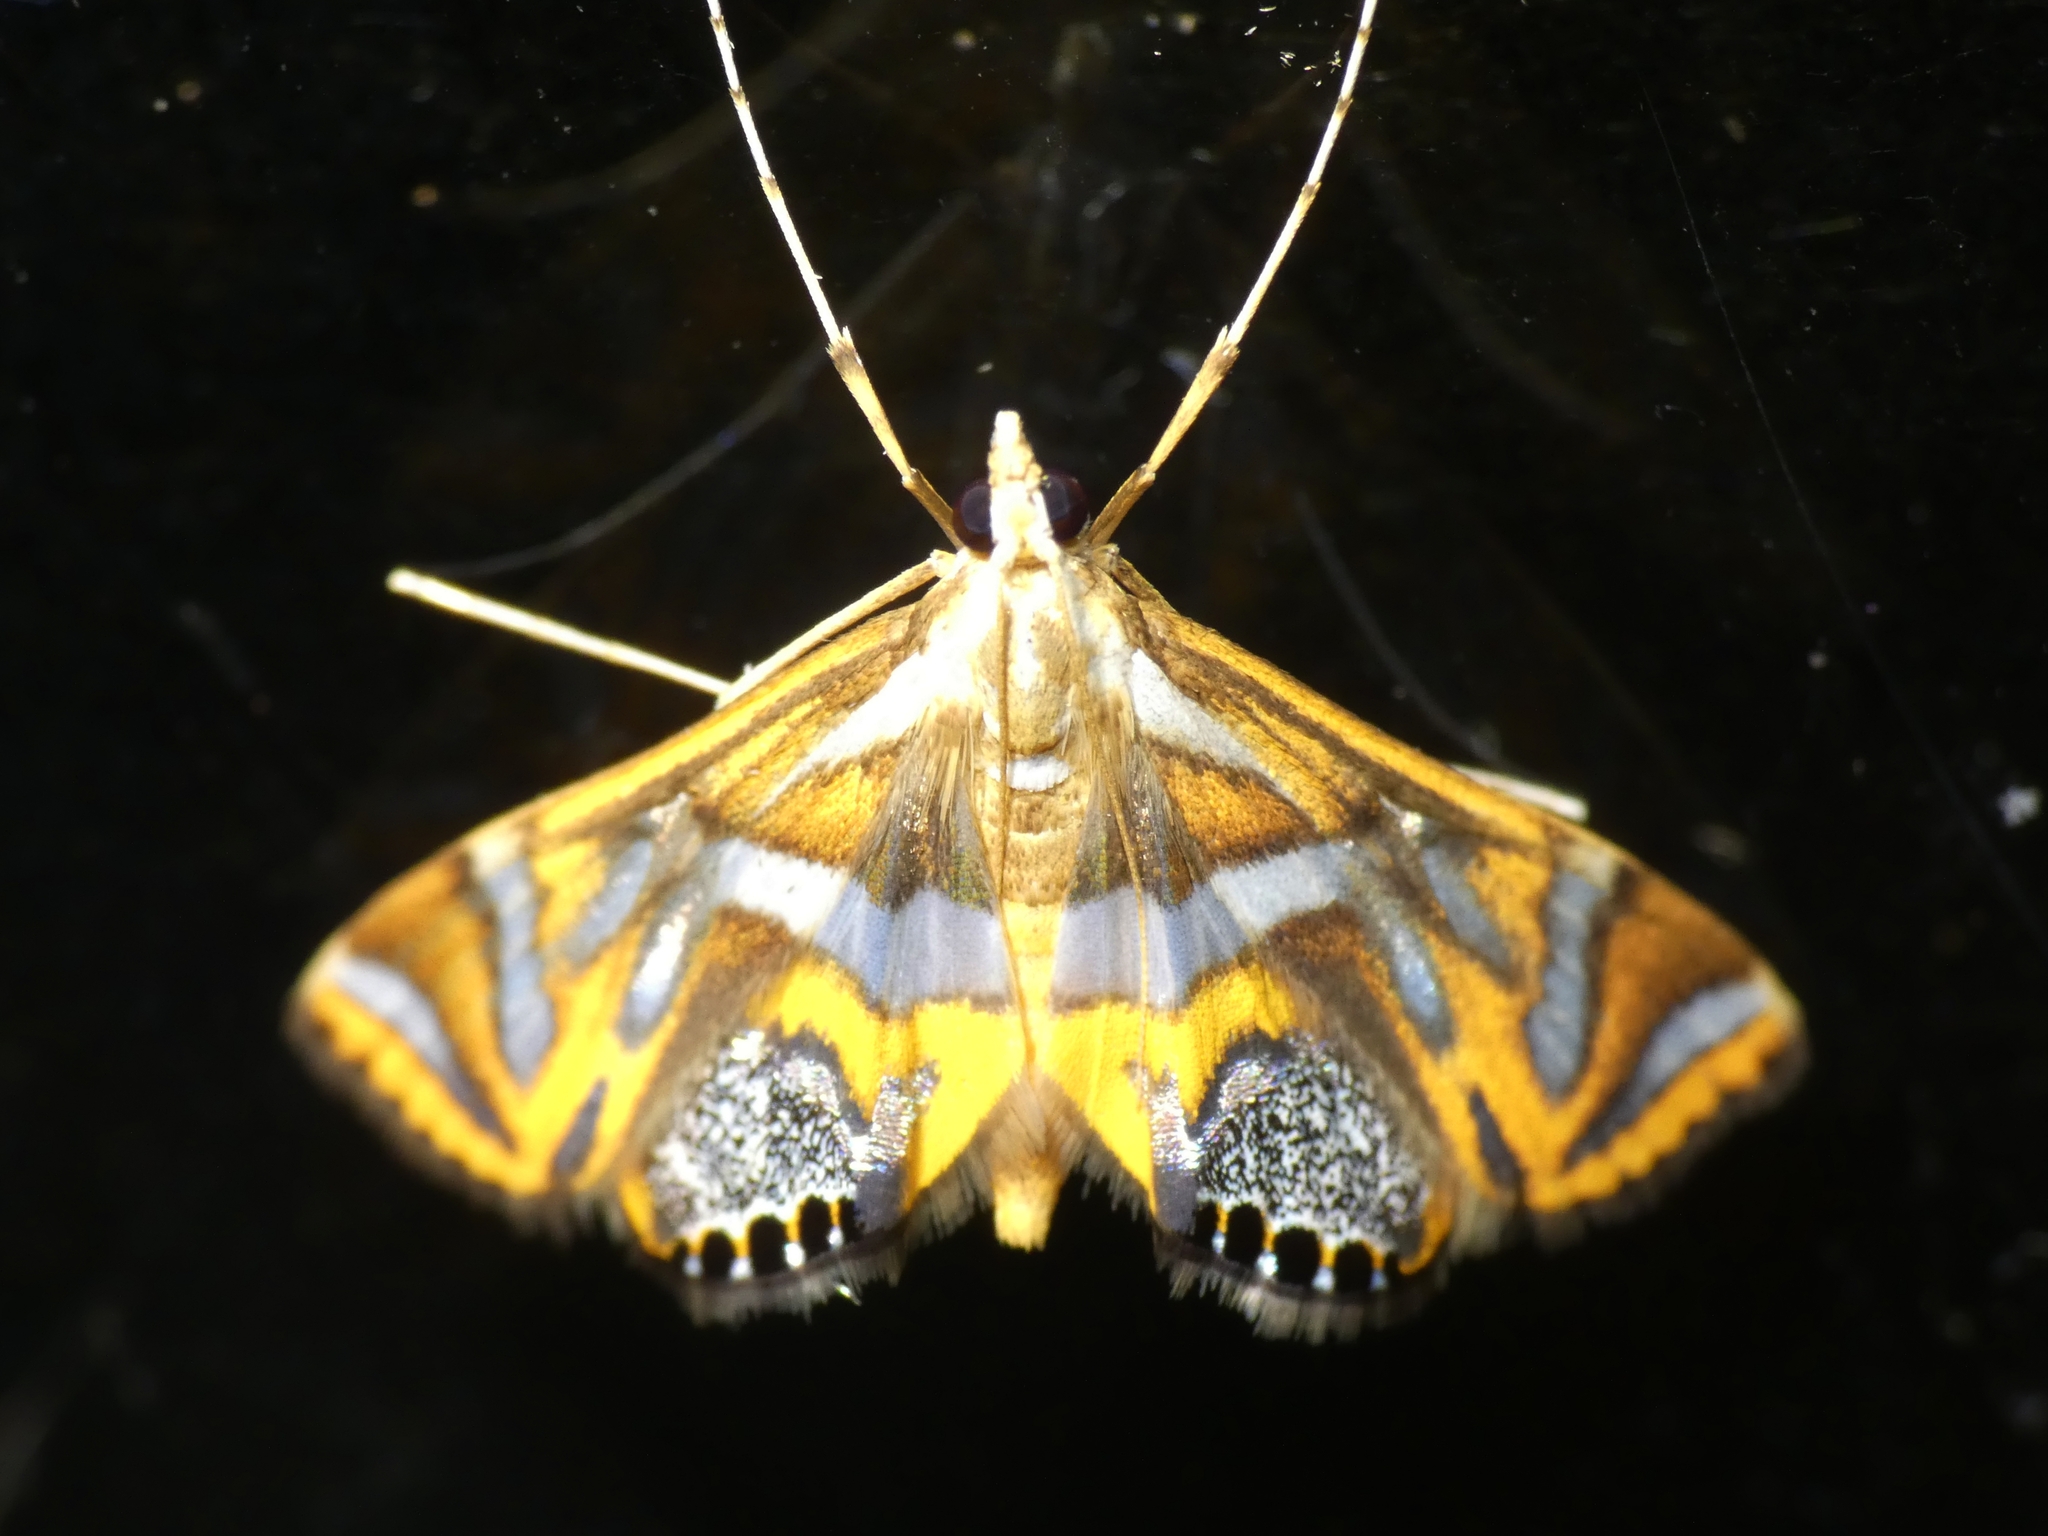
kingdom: Animalia
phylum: Arthropoda
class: Insecta
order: Lepidoptera
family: Crambidae
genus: Margarosticha
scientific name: Margarosticha sphenotis
